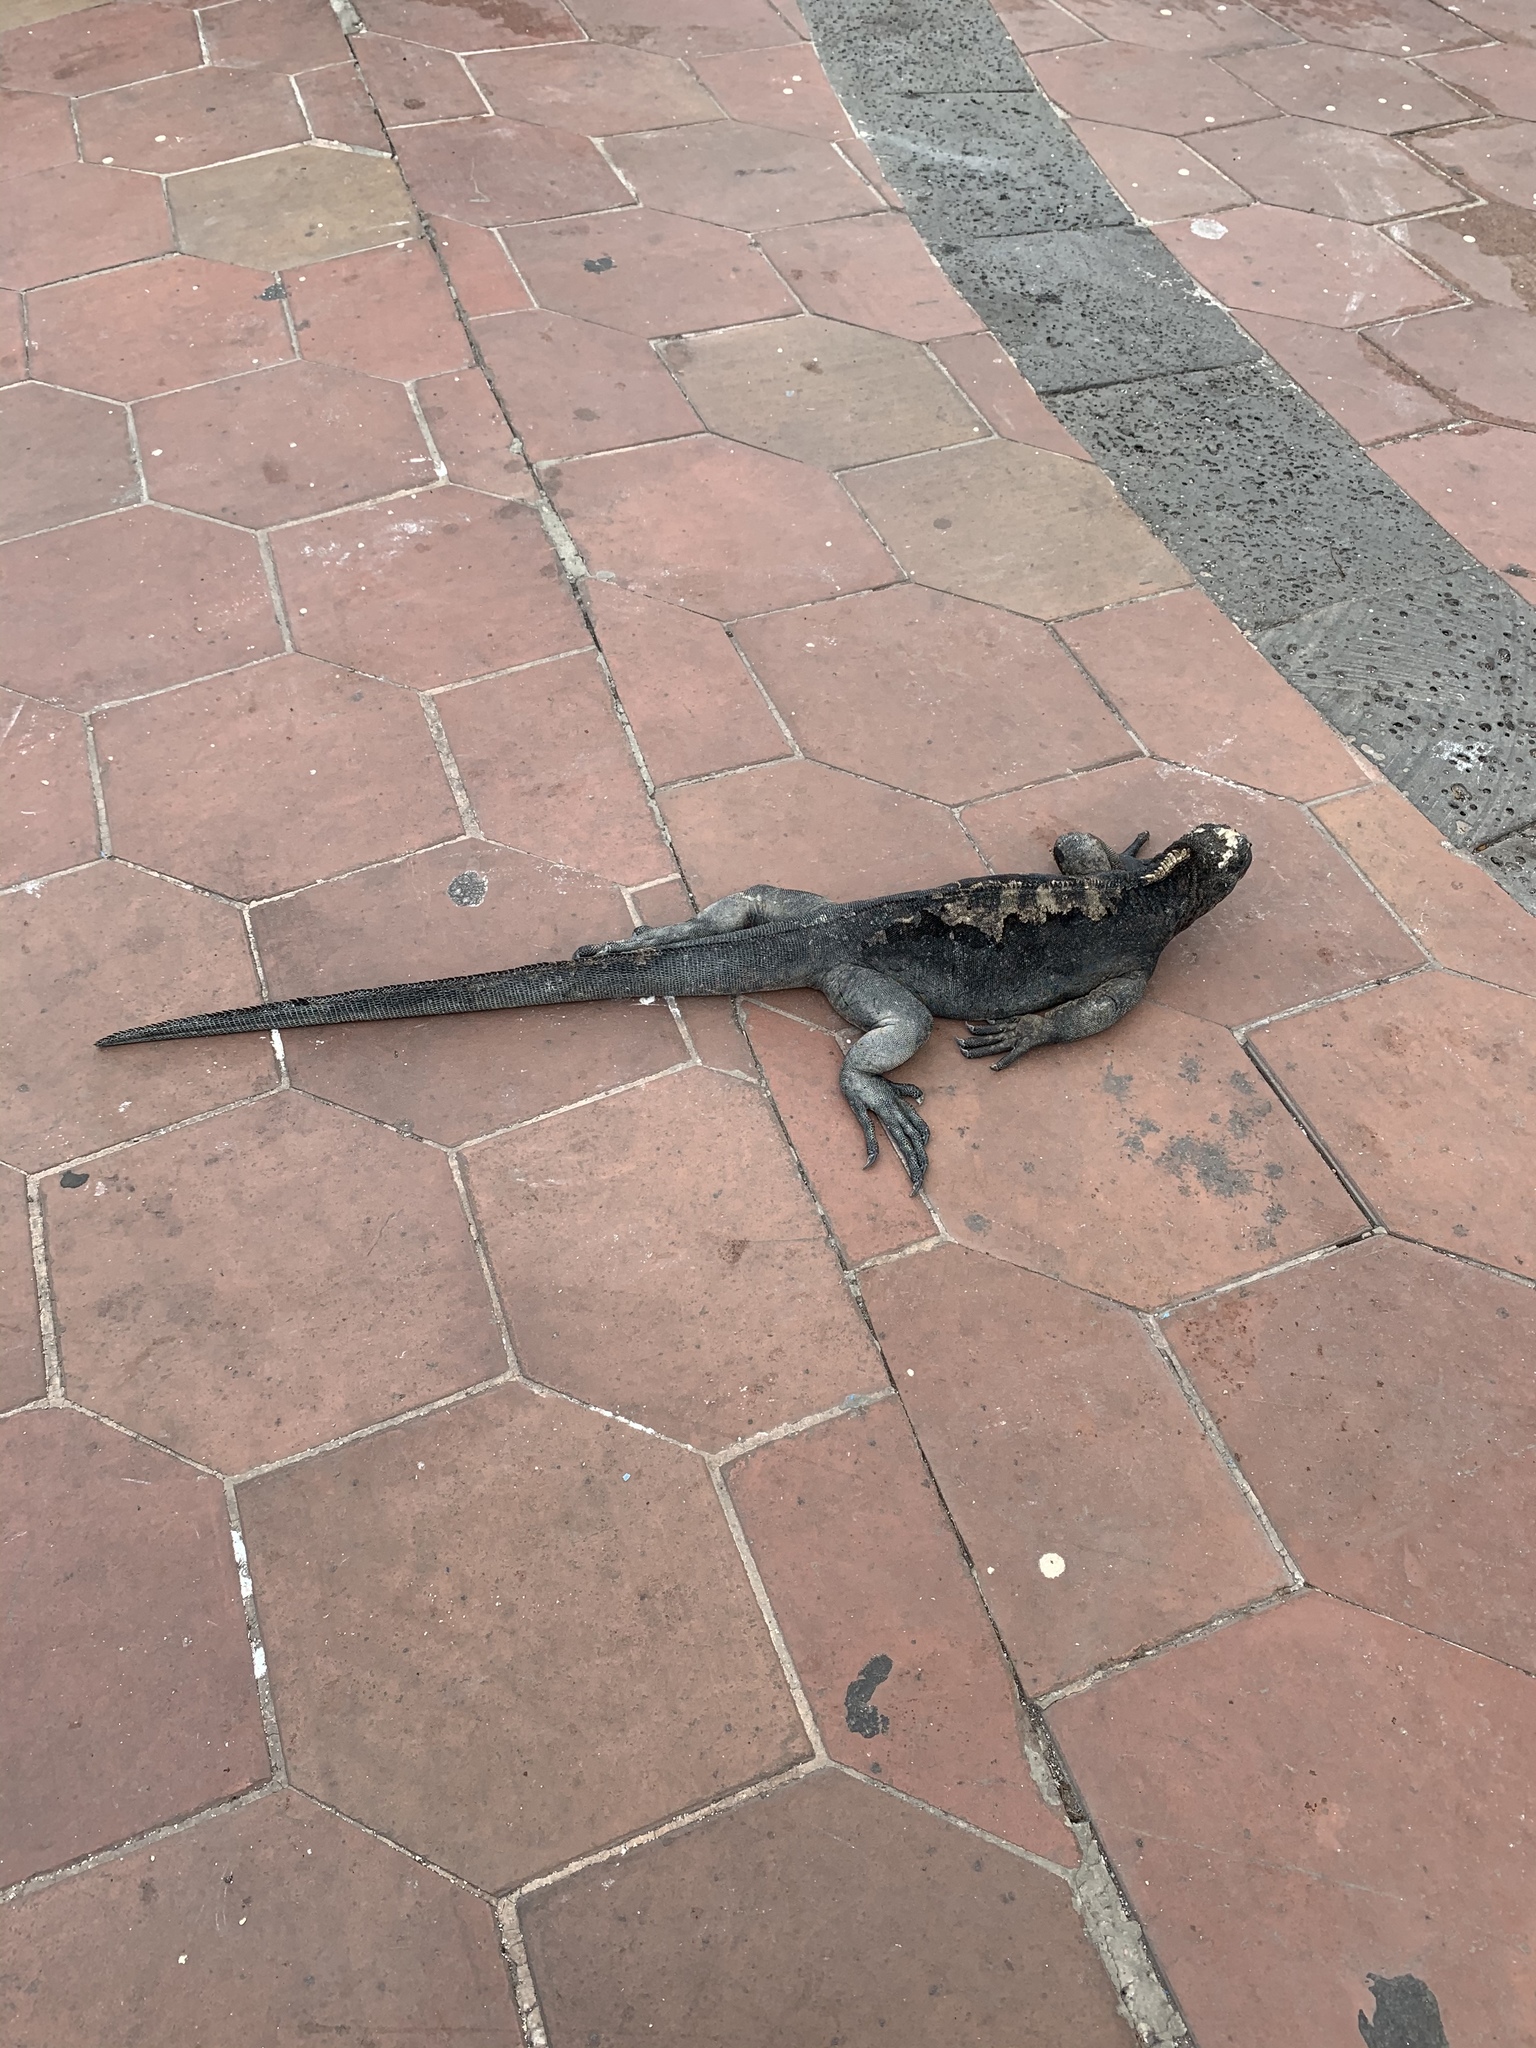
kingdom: Animalia
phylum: Chordata
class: Squamata
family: Iguanidae
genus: Amblyrhynchus
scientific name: Amblyrhynchus cristatus
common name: Marine iguana
